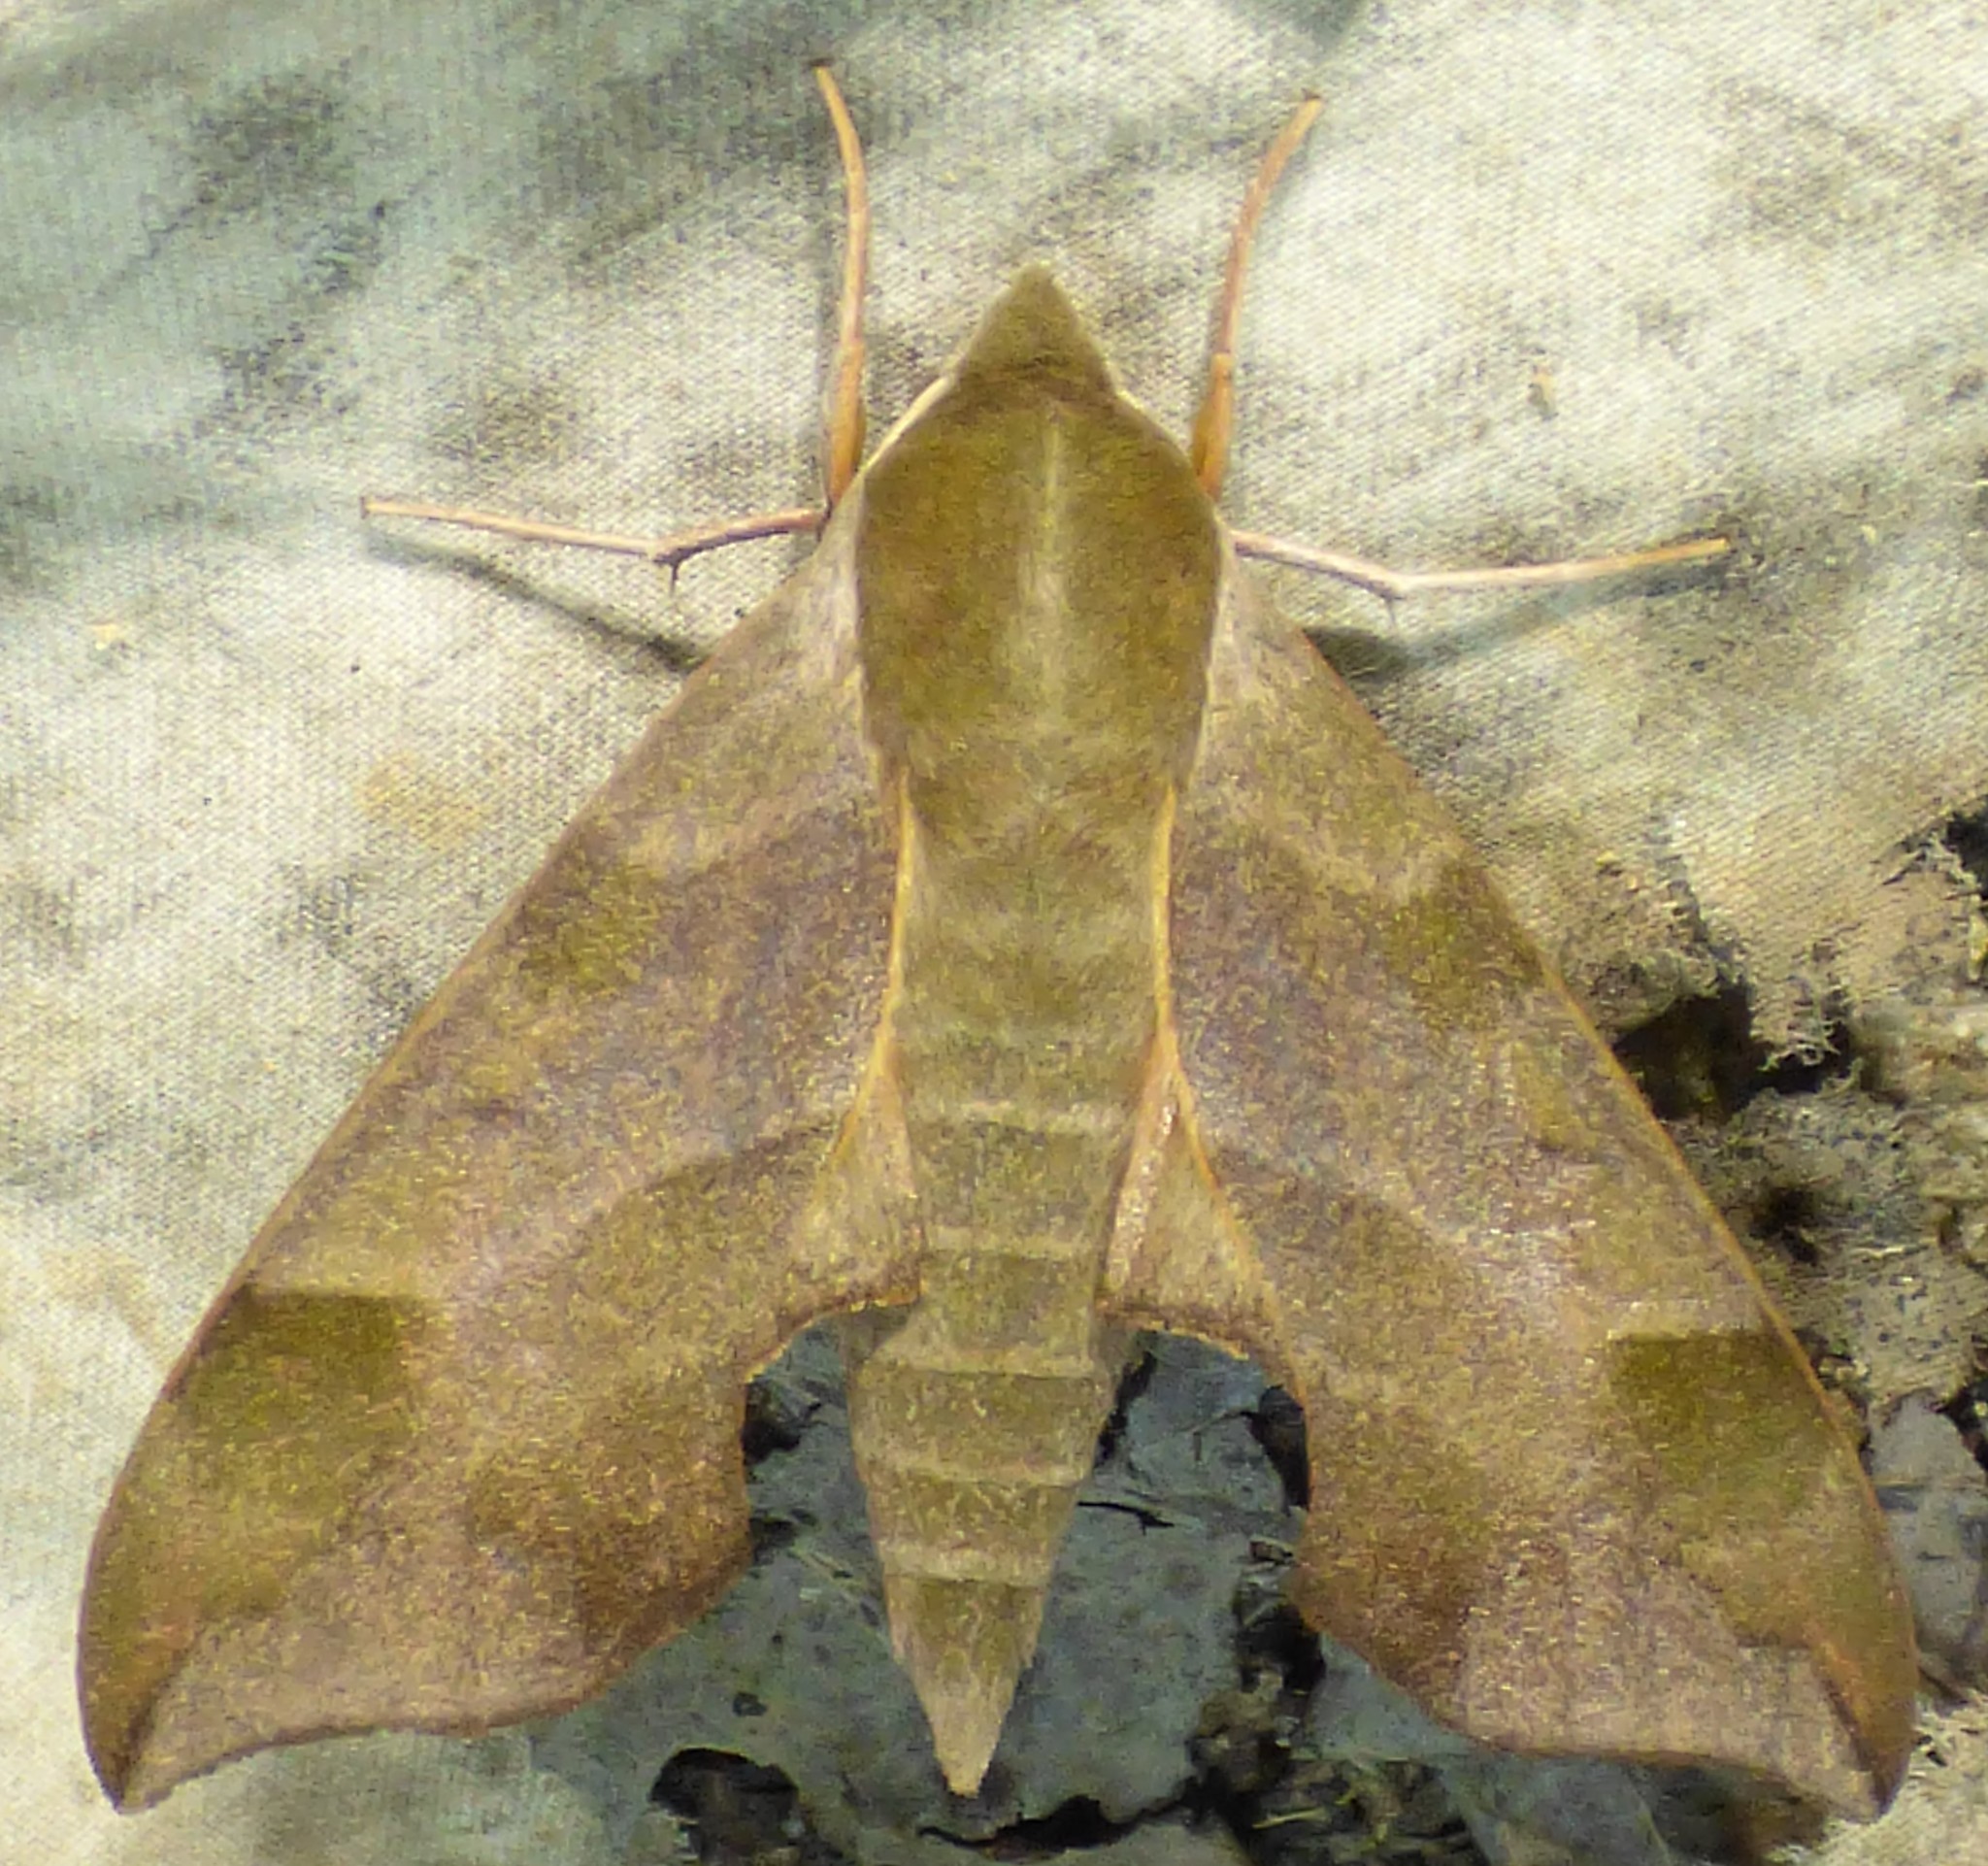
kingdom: Animalia
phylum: Arthropoda
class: Insecta
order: Lepidoptera
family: Sphingidae
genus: Darapsa
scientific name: Darapsa myron
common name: Hog sphinx
